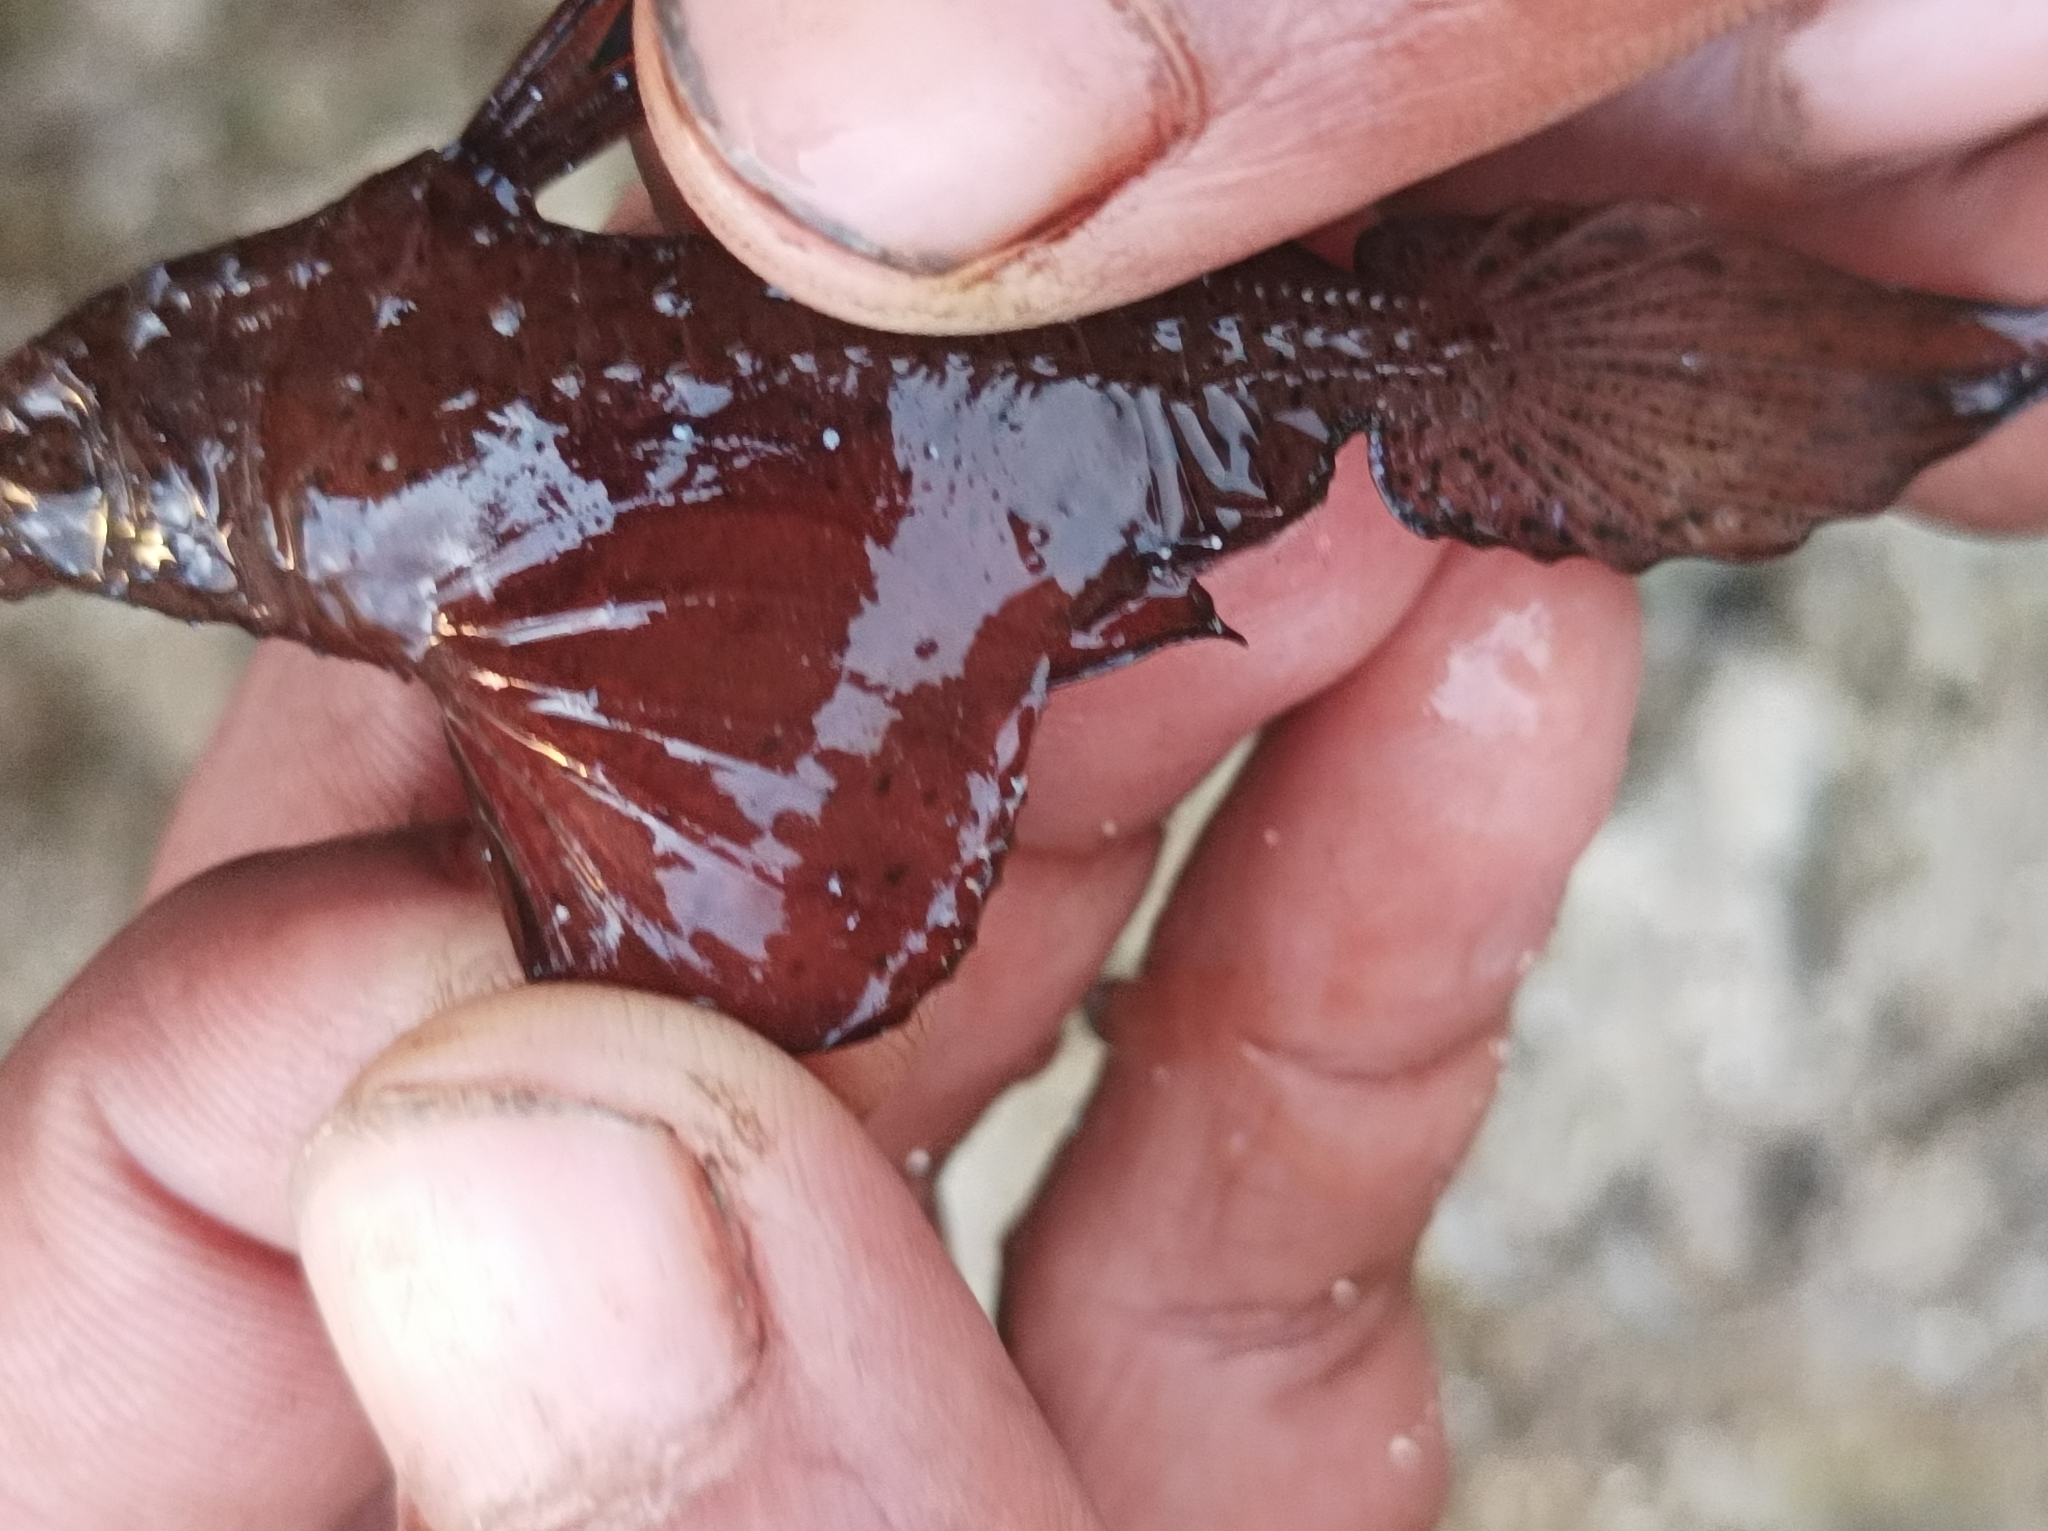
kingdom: Animalia
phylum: Chordata
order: Syngnathiformes
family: Solenostomidae
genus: Solenostomus
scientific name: Solenostomus cyanopterus
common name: Blue-finned ghost pipefish
